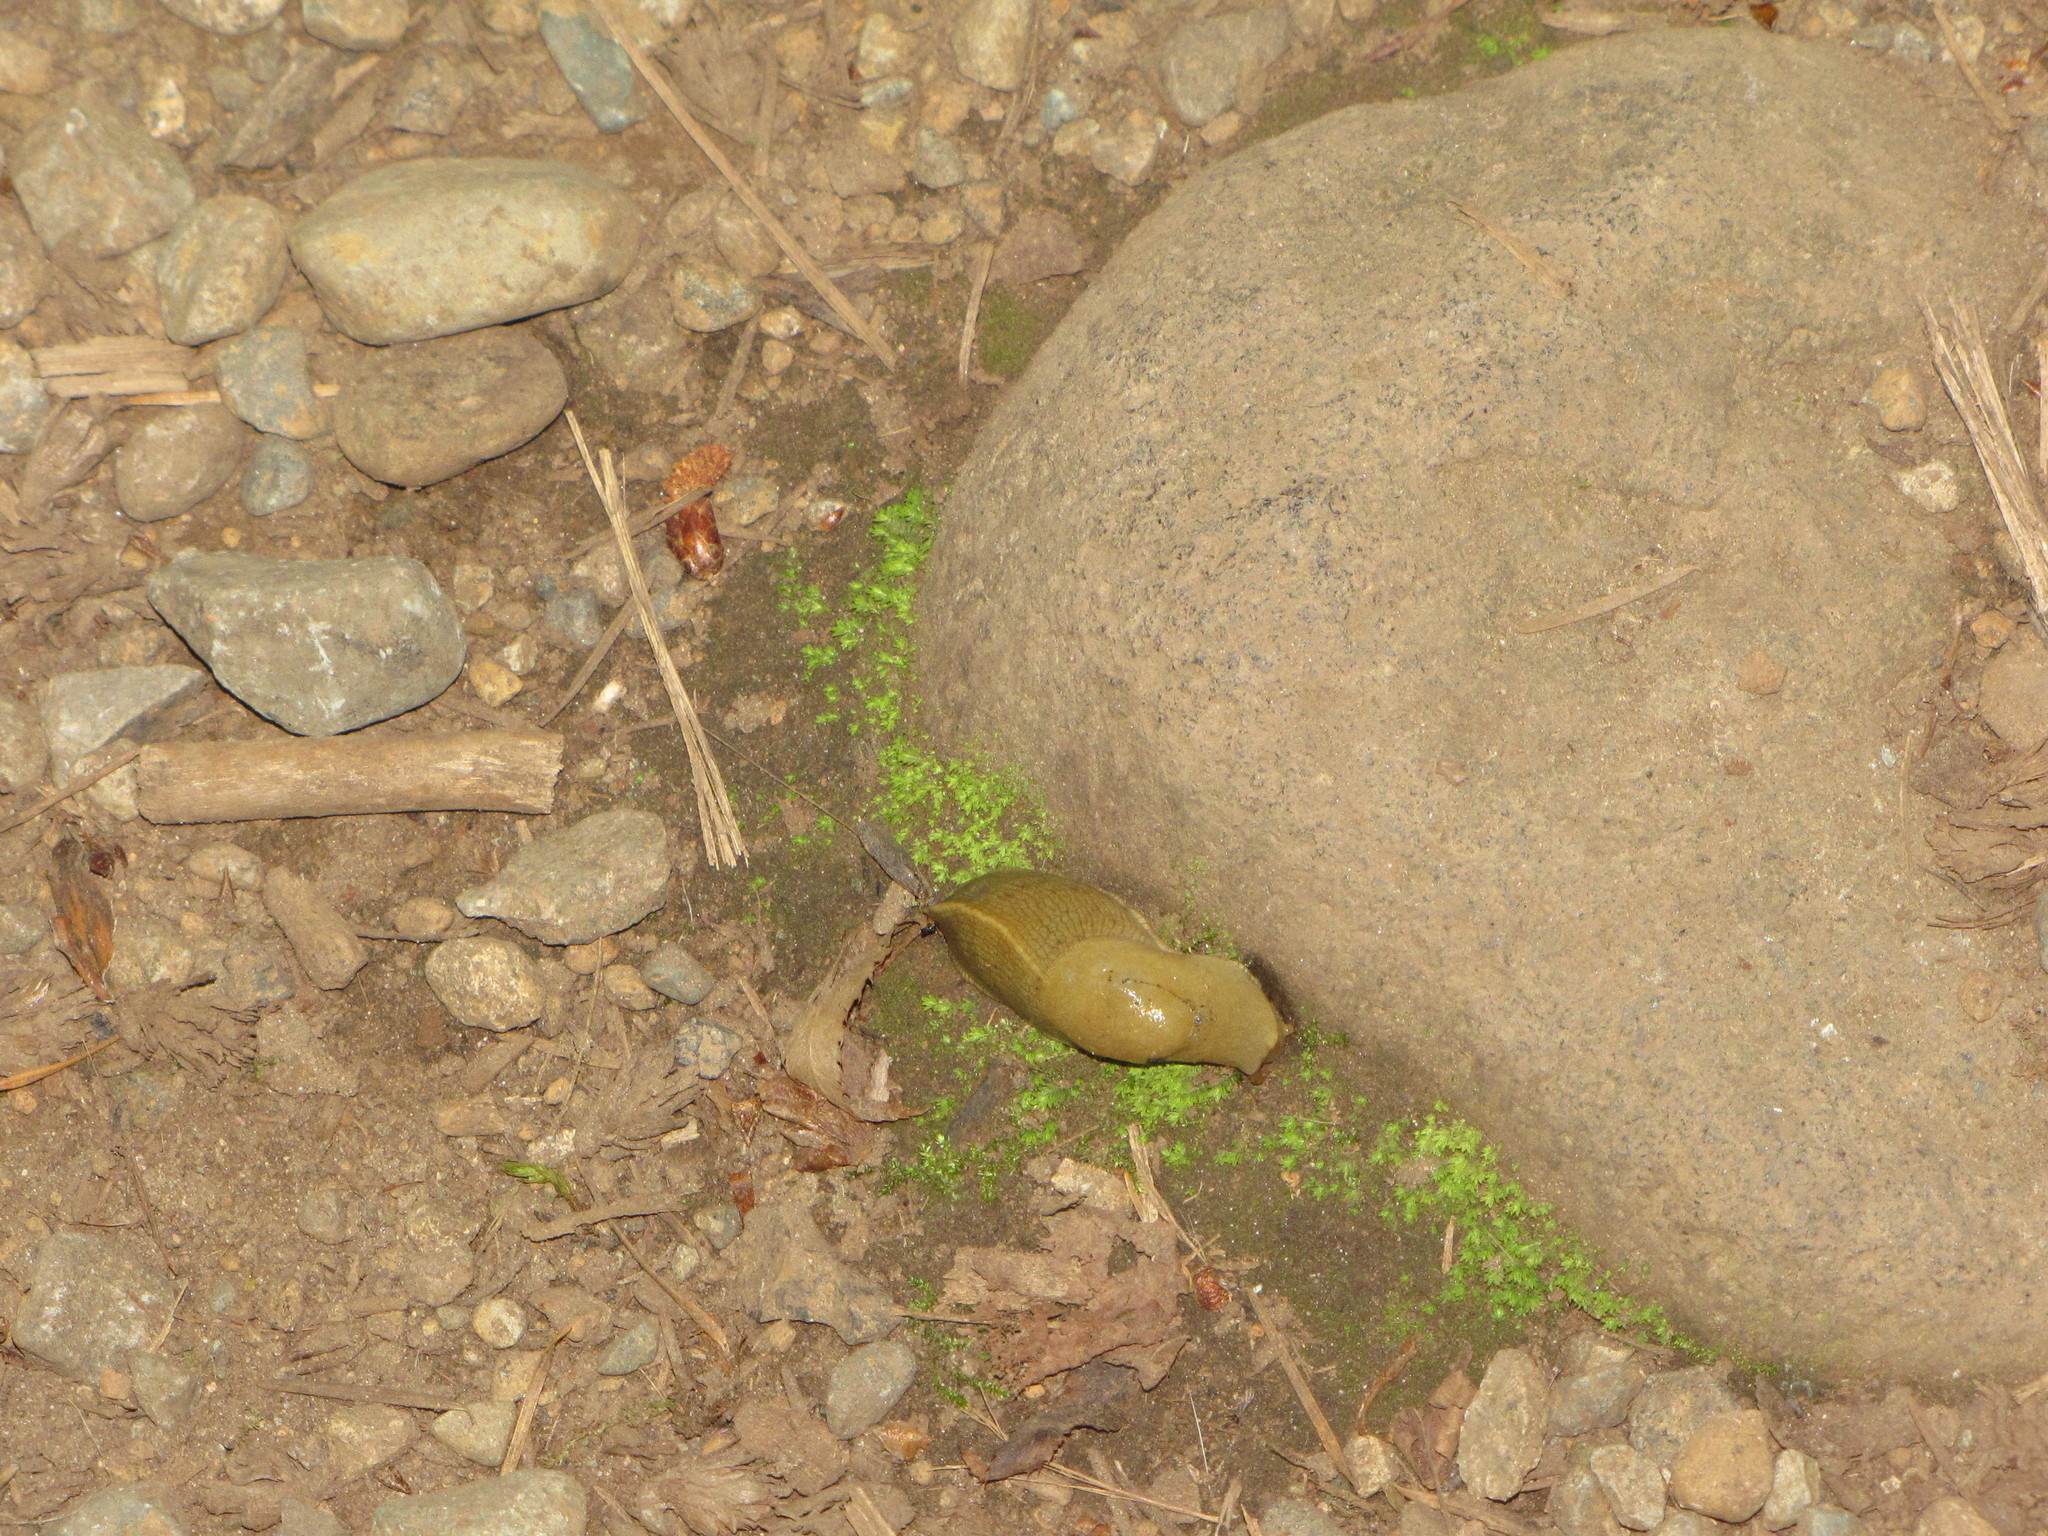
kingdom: Animalia
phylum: Mollusca
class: Gastropoda
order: Stylommatophora
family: Ariolimacidae
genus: Ariolimax
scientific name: Ariolimax columbianus
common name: Pacific banana slug
